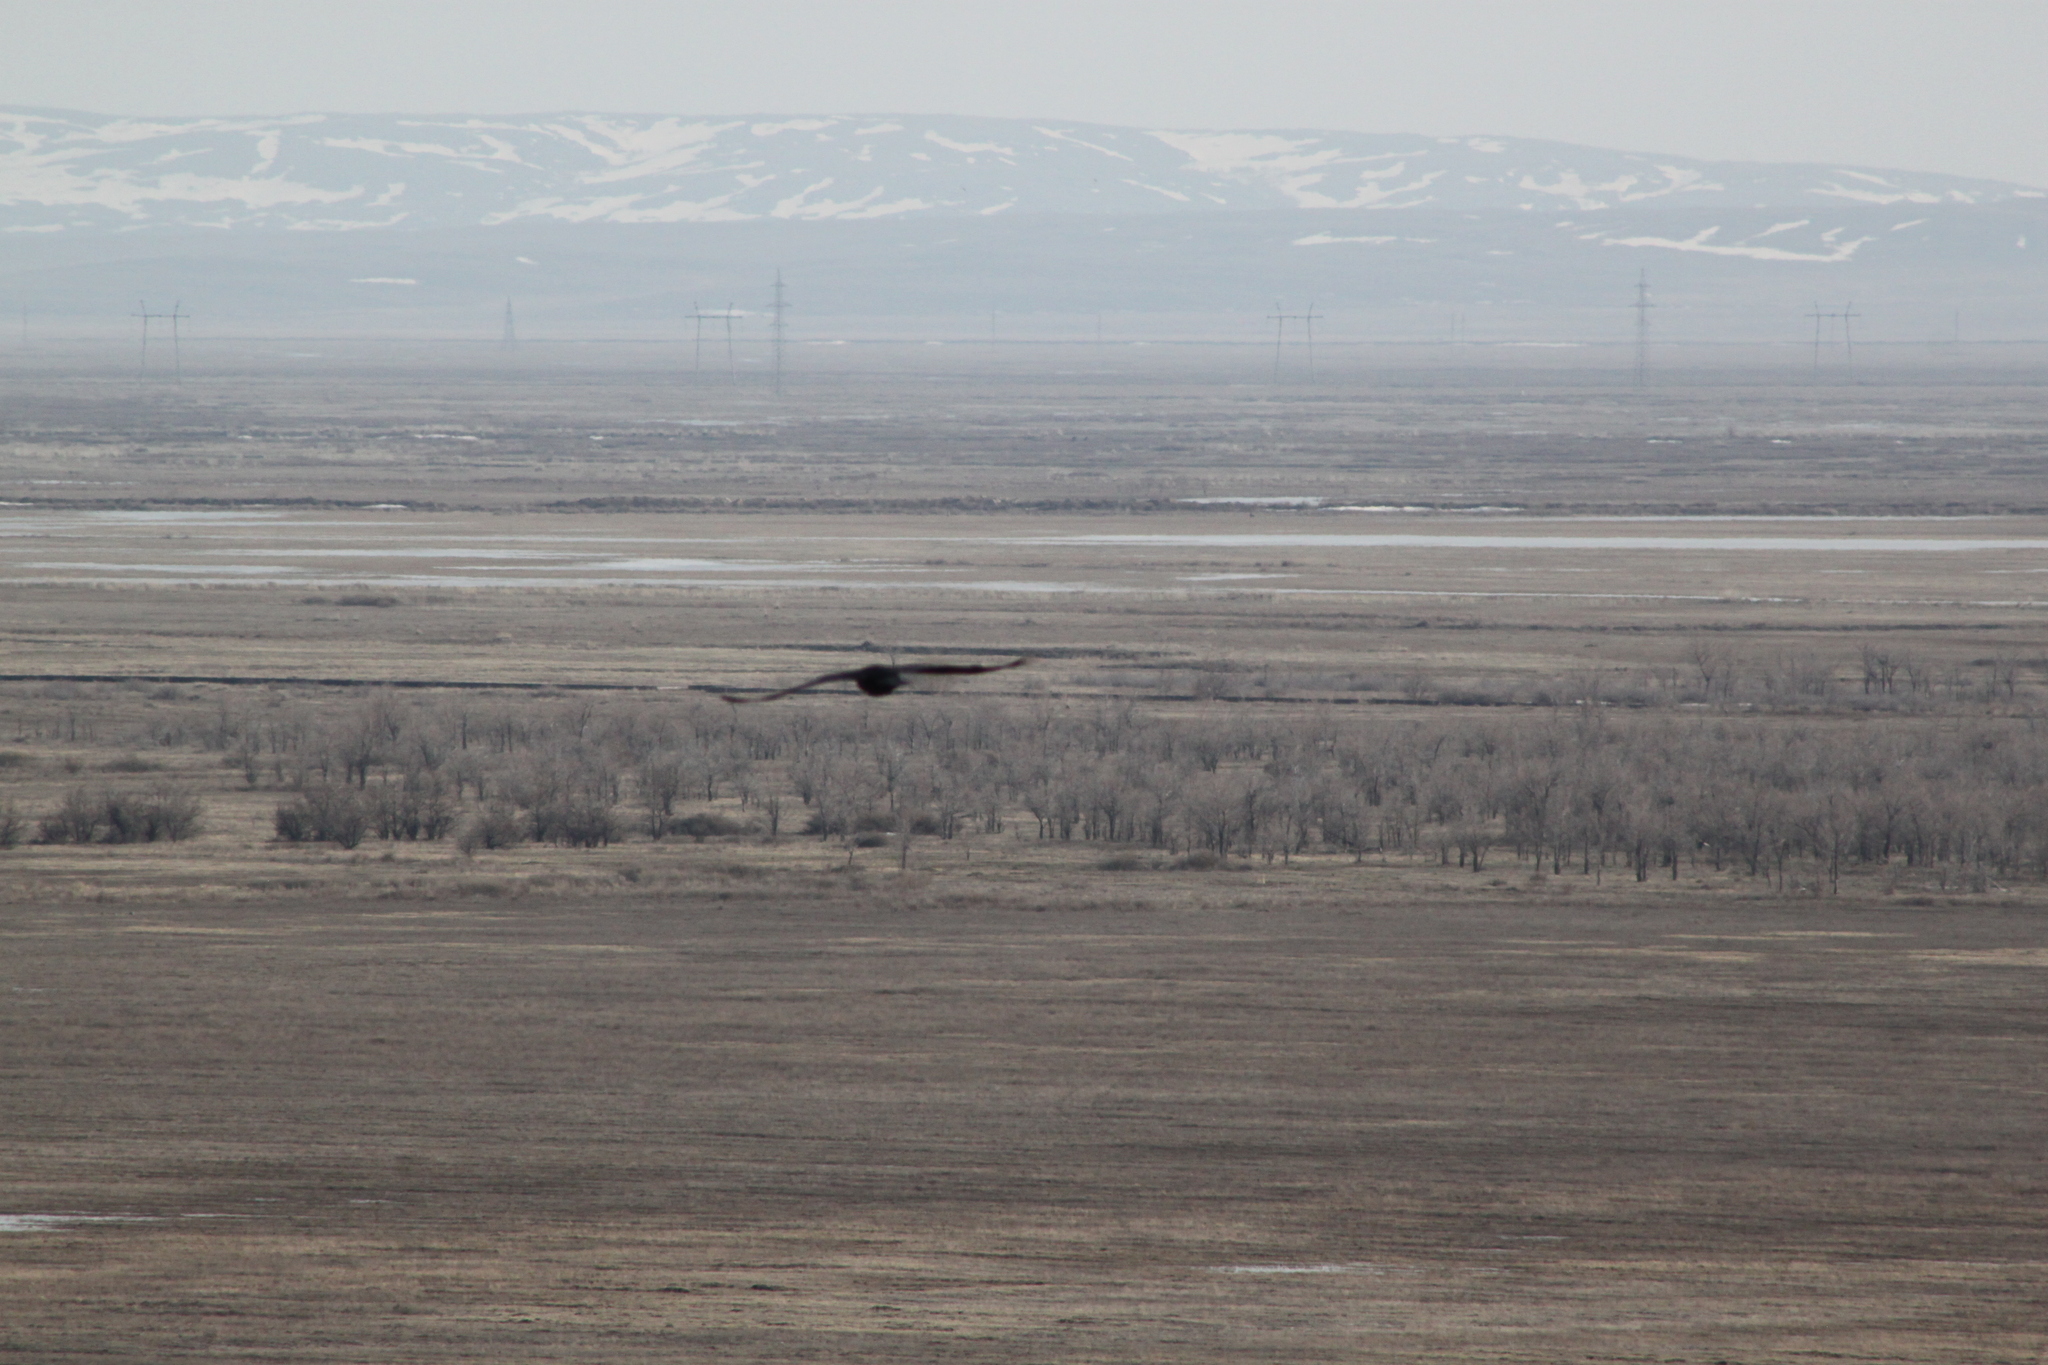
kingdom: Animalia
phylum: Chordata
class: Aves
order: Passeriformes
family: Corvidae
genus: Corvus
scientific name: Corvus frugilegus
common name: Rook
